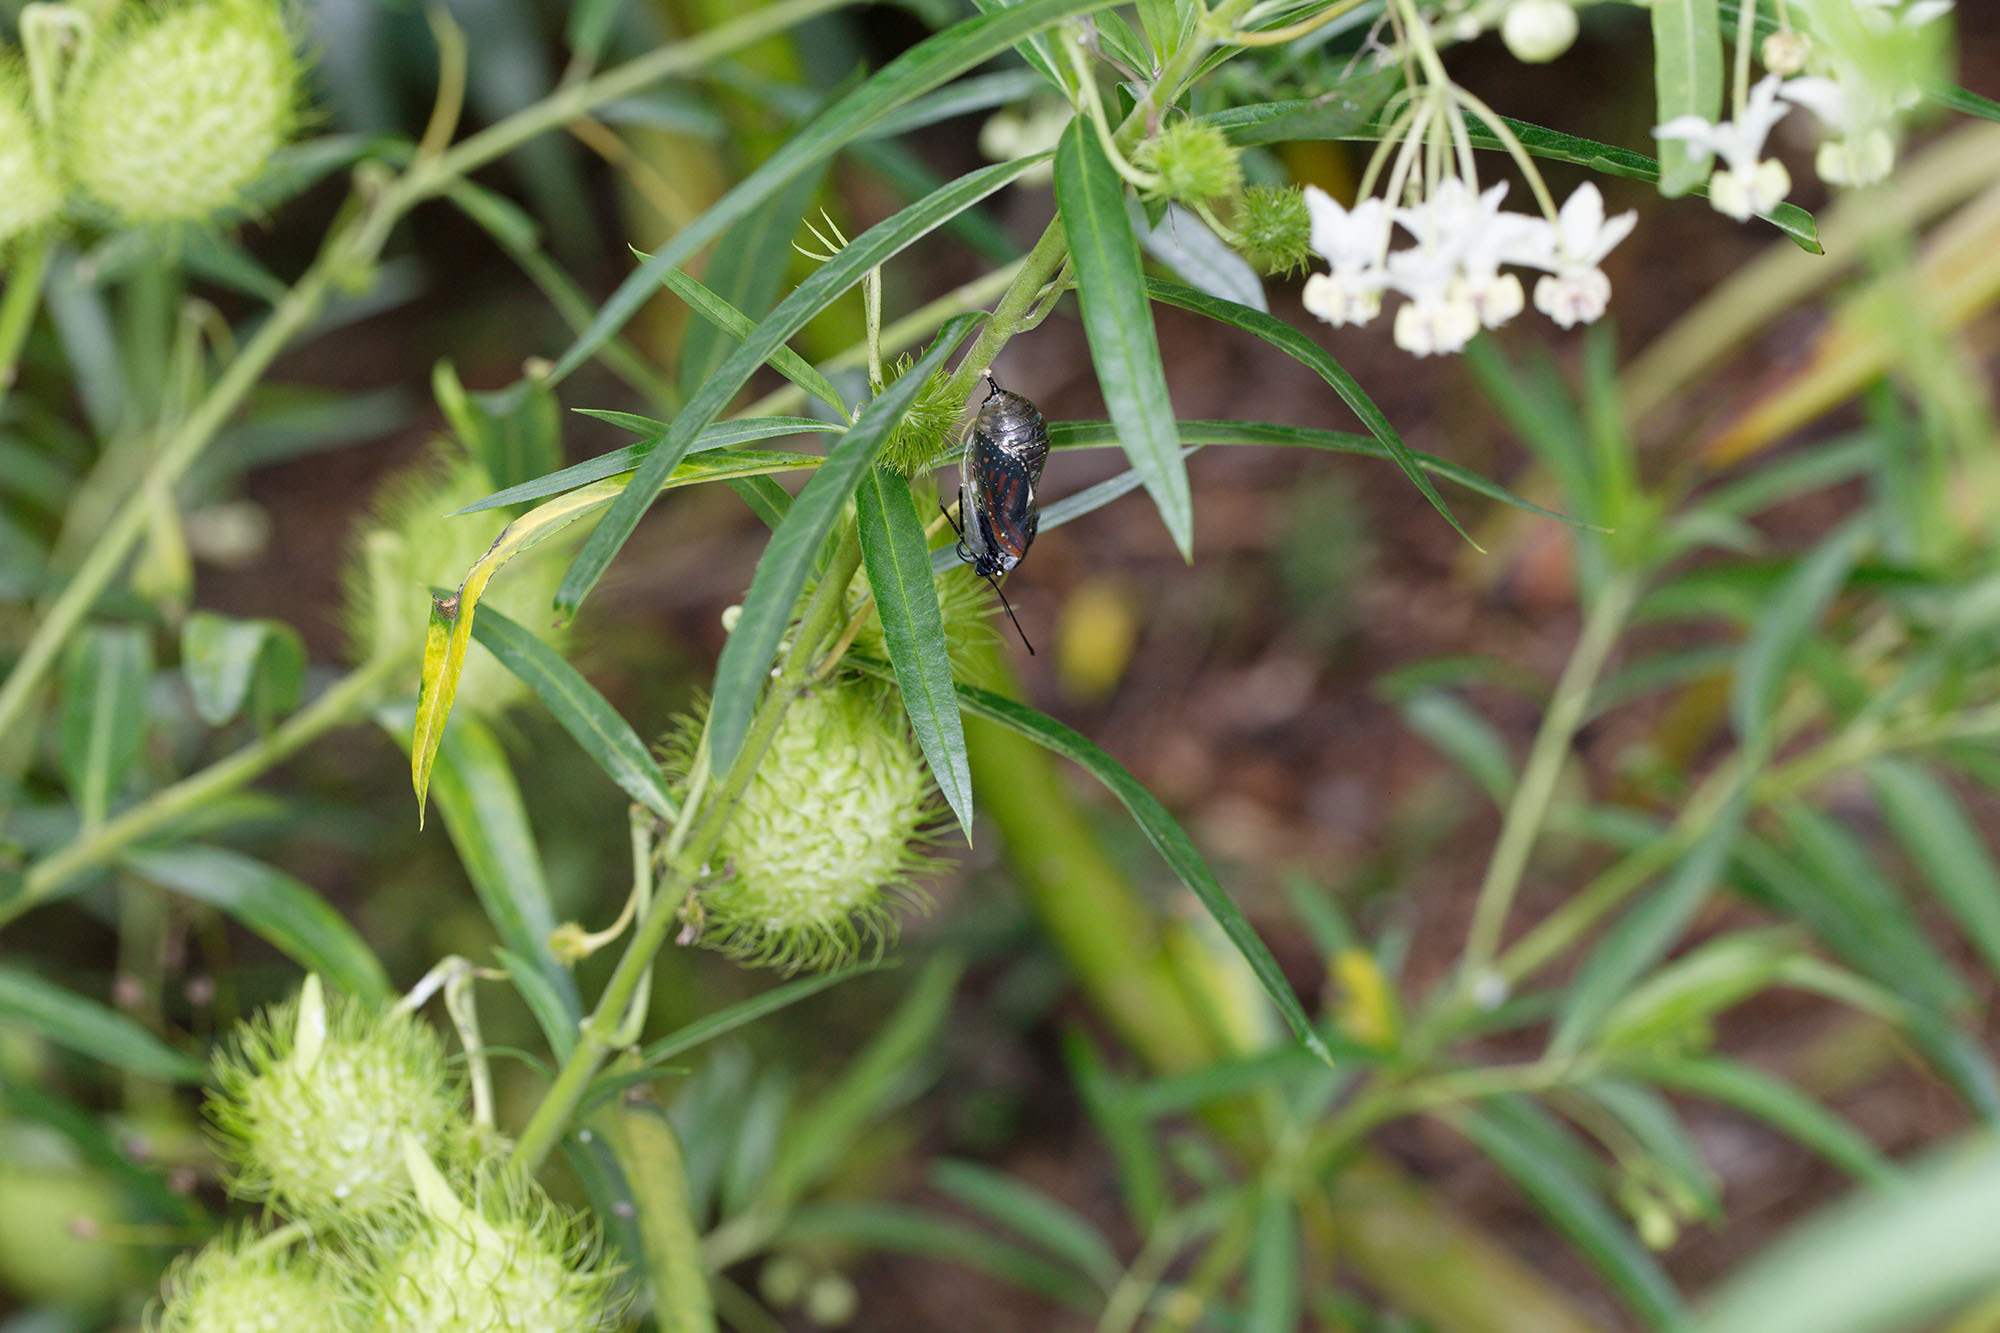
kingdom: Animalia
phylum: Arthropoda
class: Insecta
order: Lepidoptera
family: Nymphalidae
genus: Danaus
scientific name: Danaus plexippus
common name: Monarch
